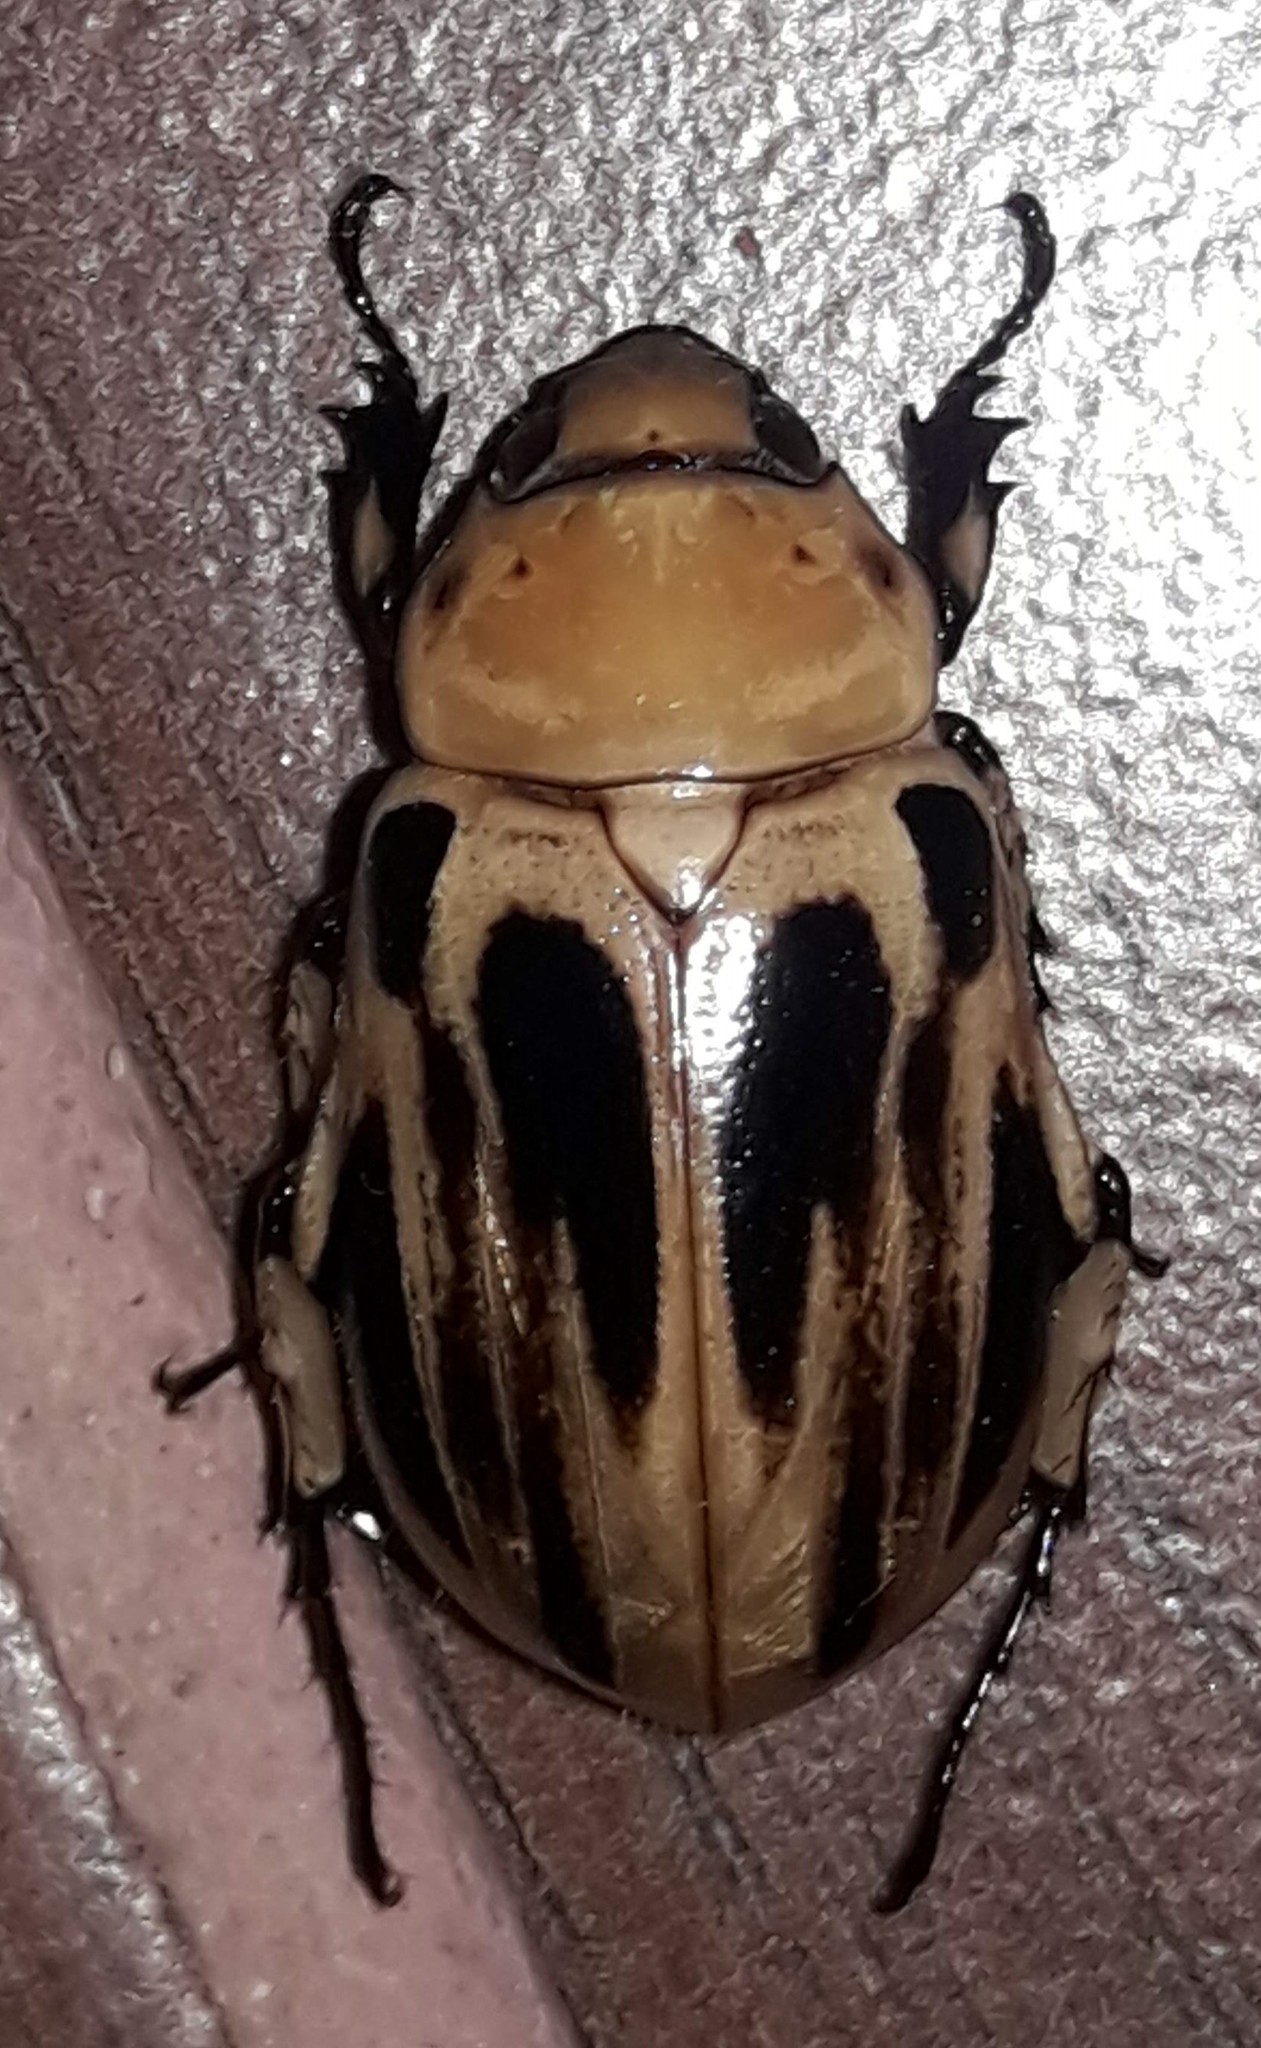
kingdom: Animalia
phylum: Arthropoda
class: Insecta
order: Coleoptera
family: Scarabaeidae
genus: Ancognatha
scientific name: Ancognatha vulgaris
